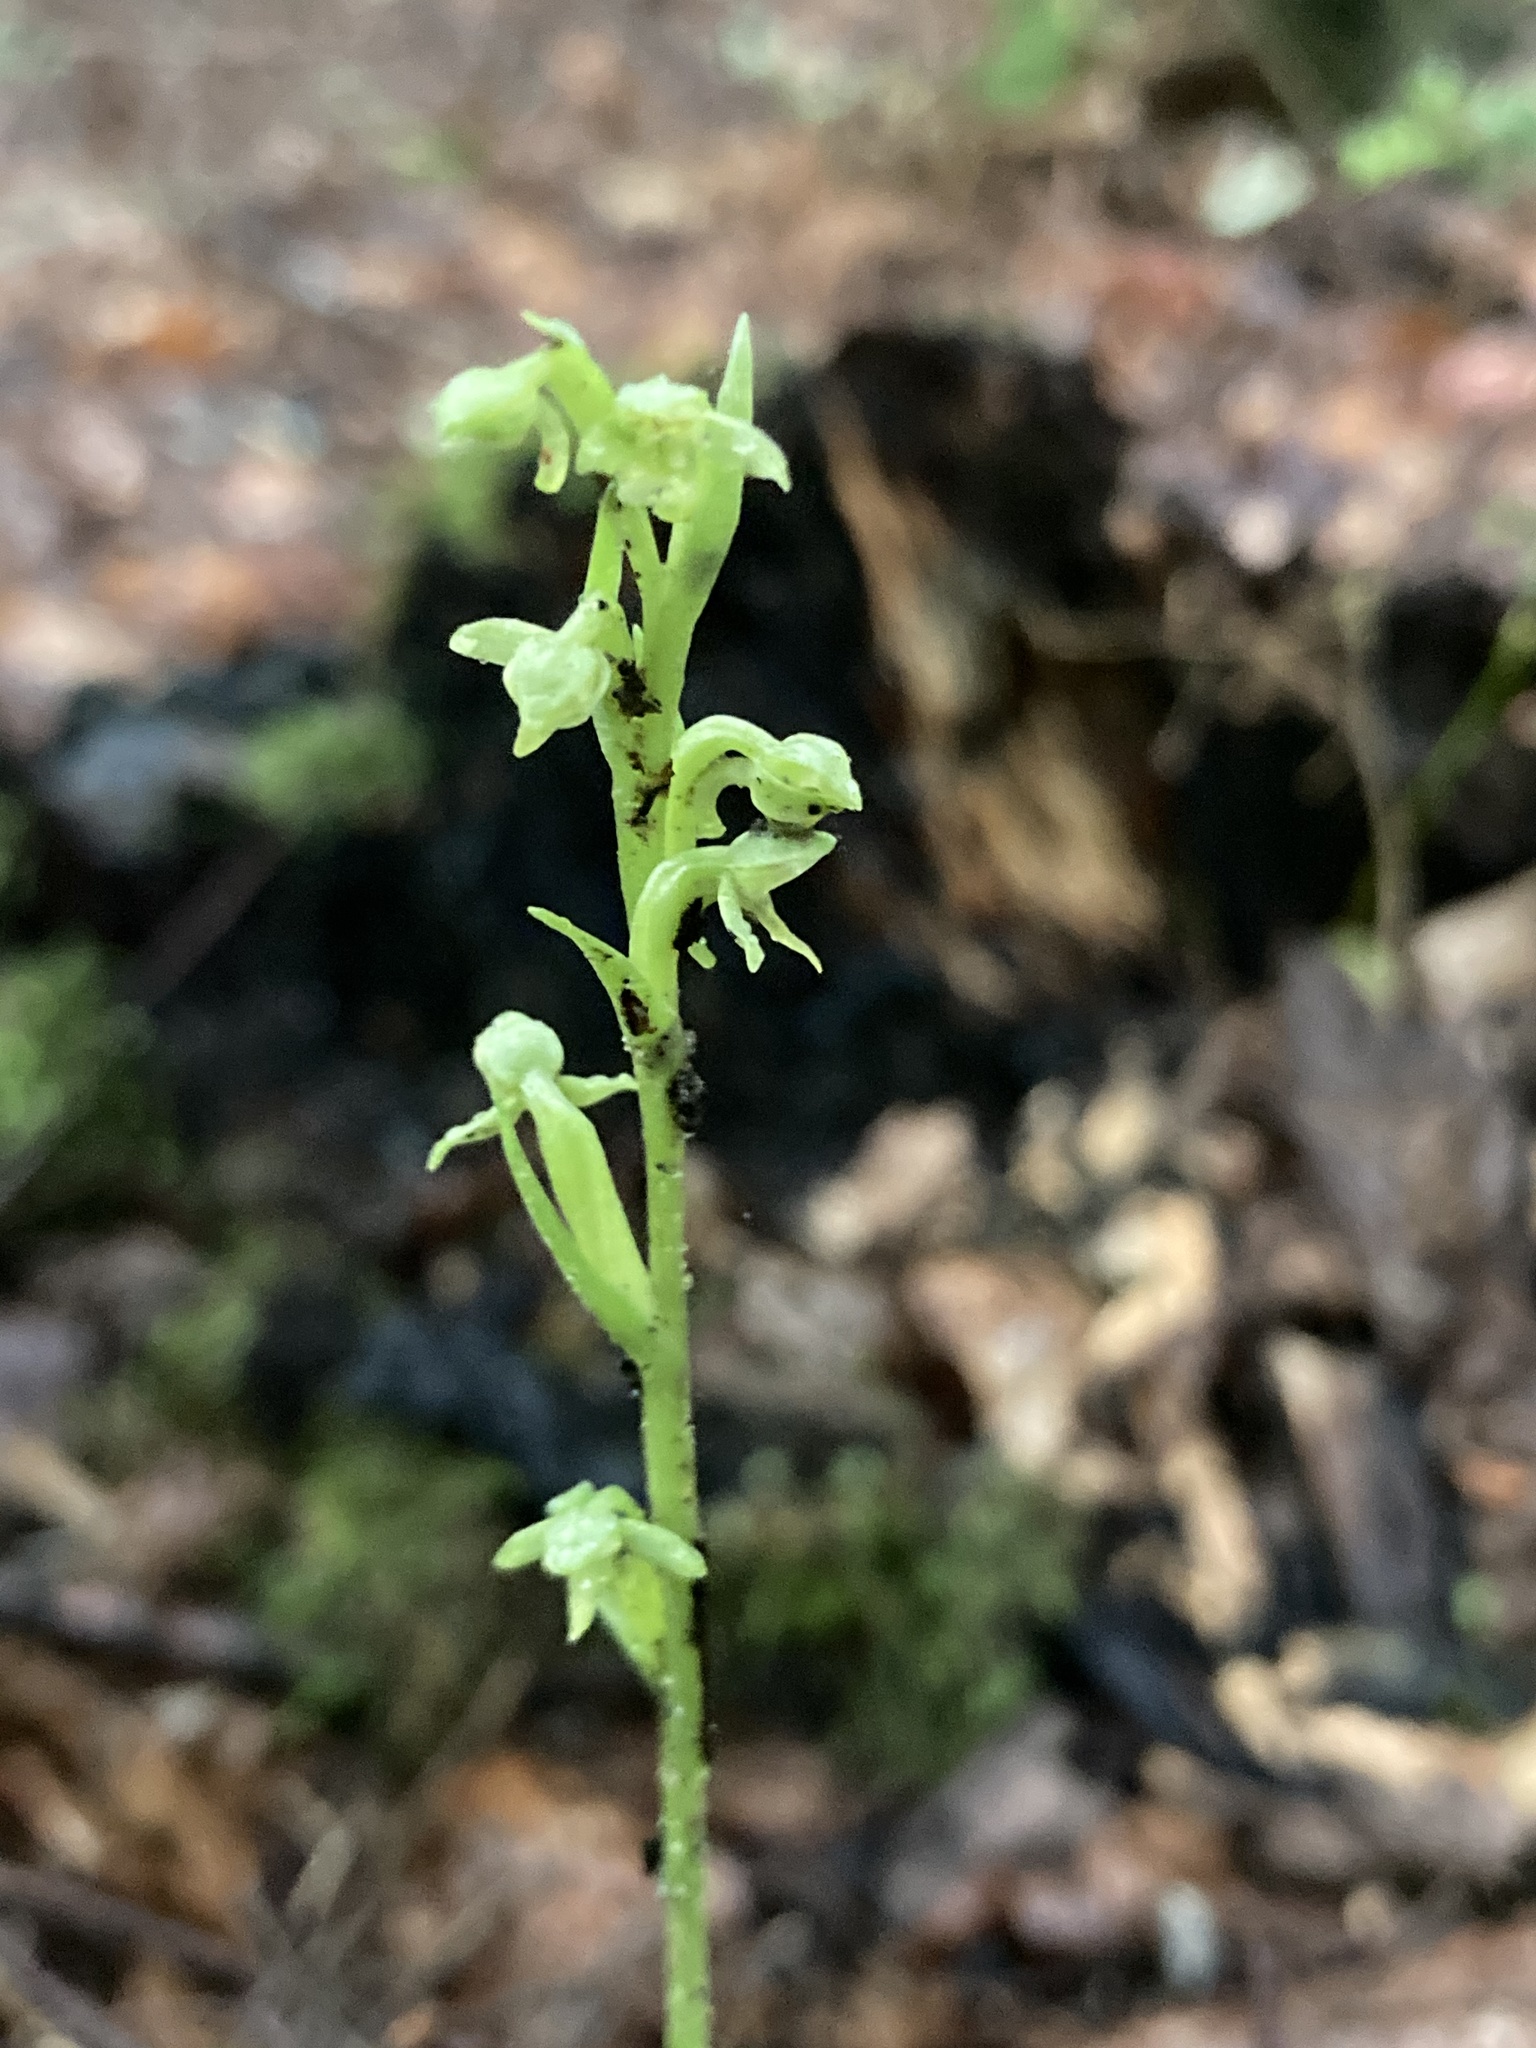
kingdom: Plantae
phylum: Tracheophyta
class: Liliopsida
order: Asparagales
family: Orchidaceae
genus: Platanthera
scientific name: Platanthera aquilonis
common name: Northern green orchid
